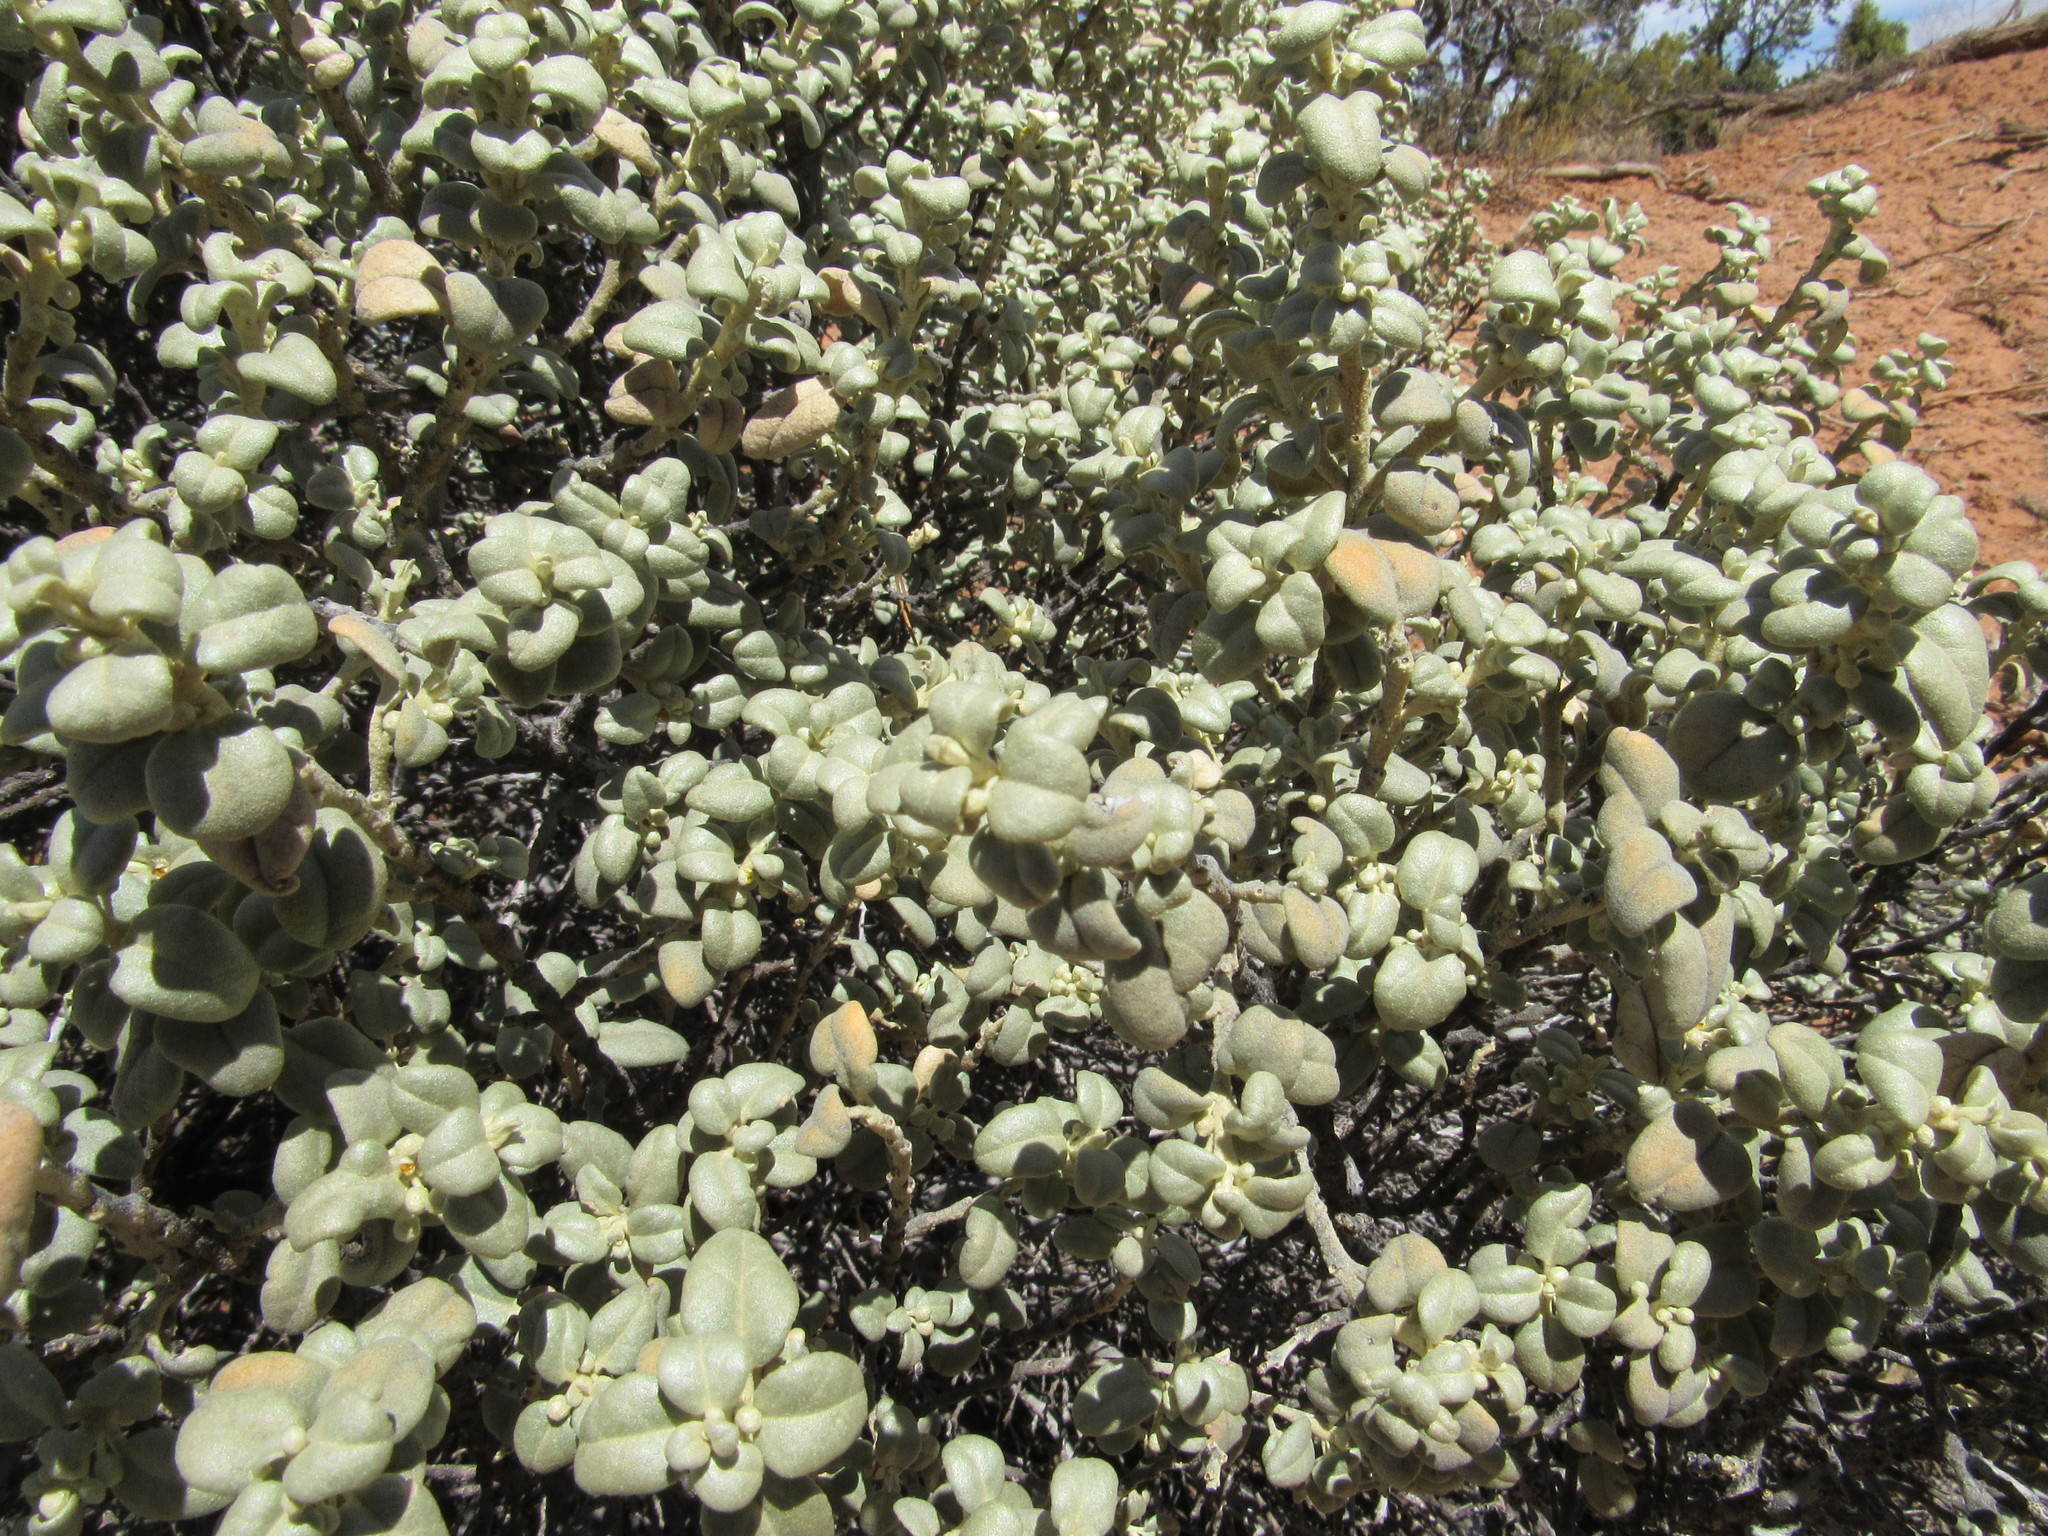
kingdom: Plantae
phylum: Tracheophyta
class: Magnoliopsida
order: Rosales
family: Elaeagnaceae
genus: Shepherdia
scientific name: Shepherdia rotundifolia
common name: Silverscale
